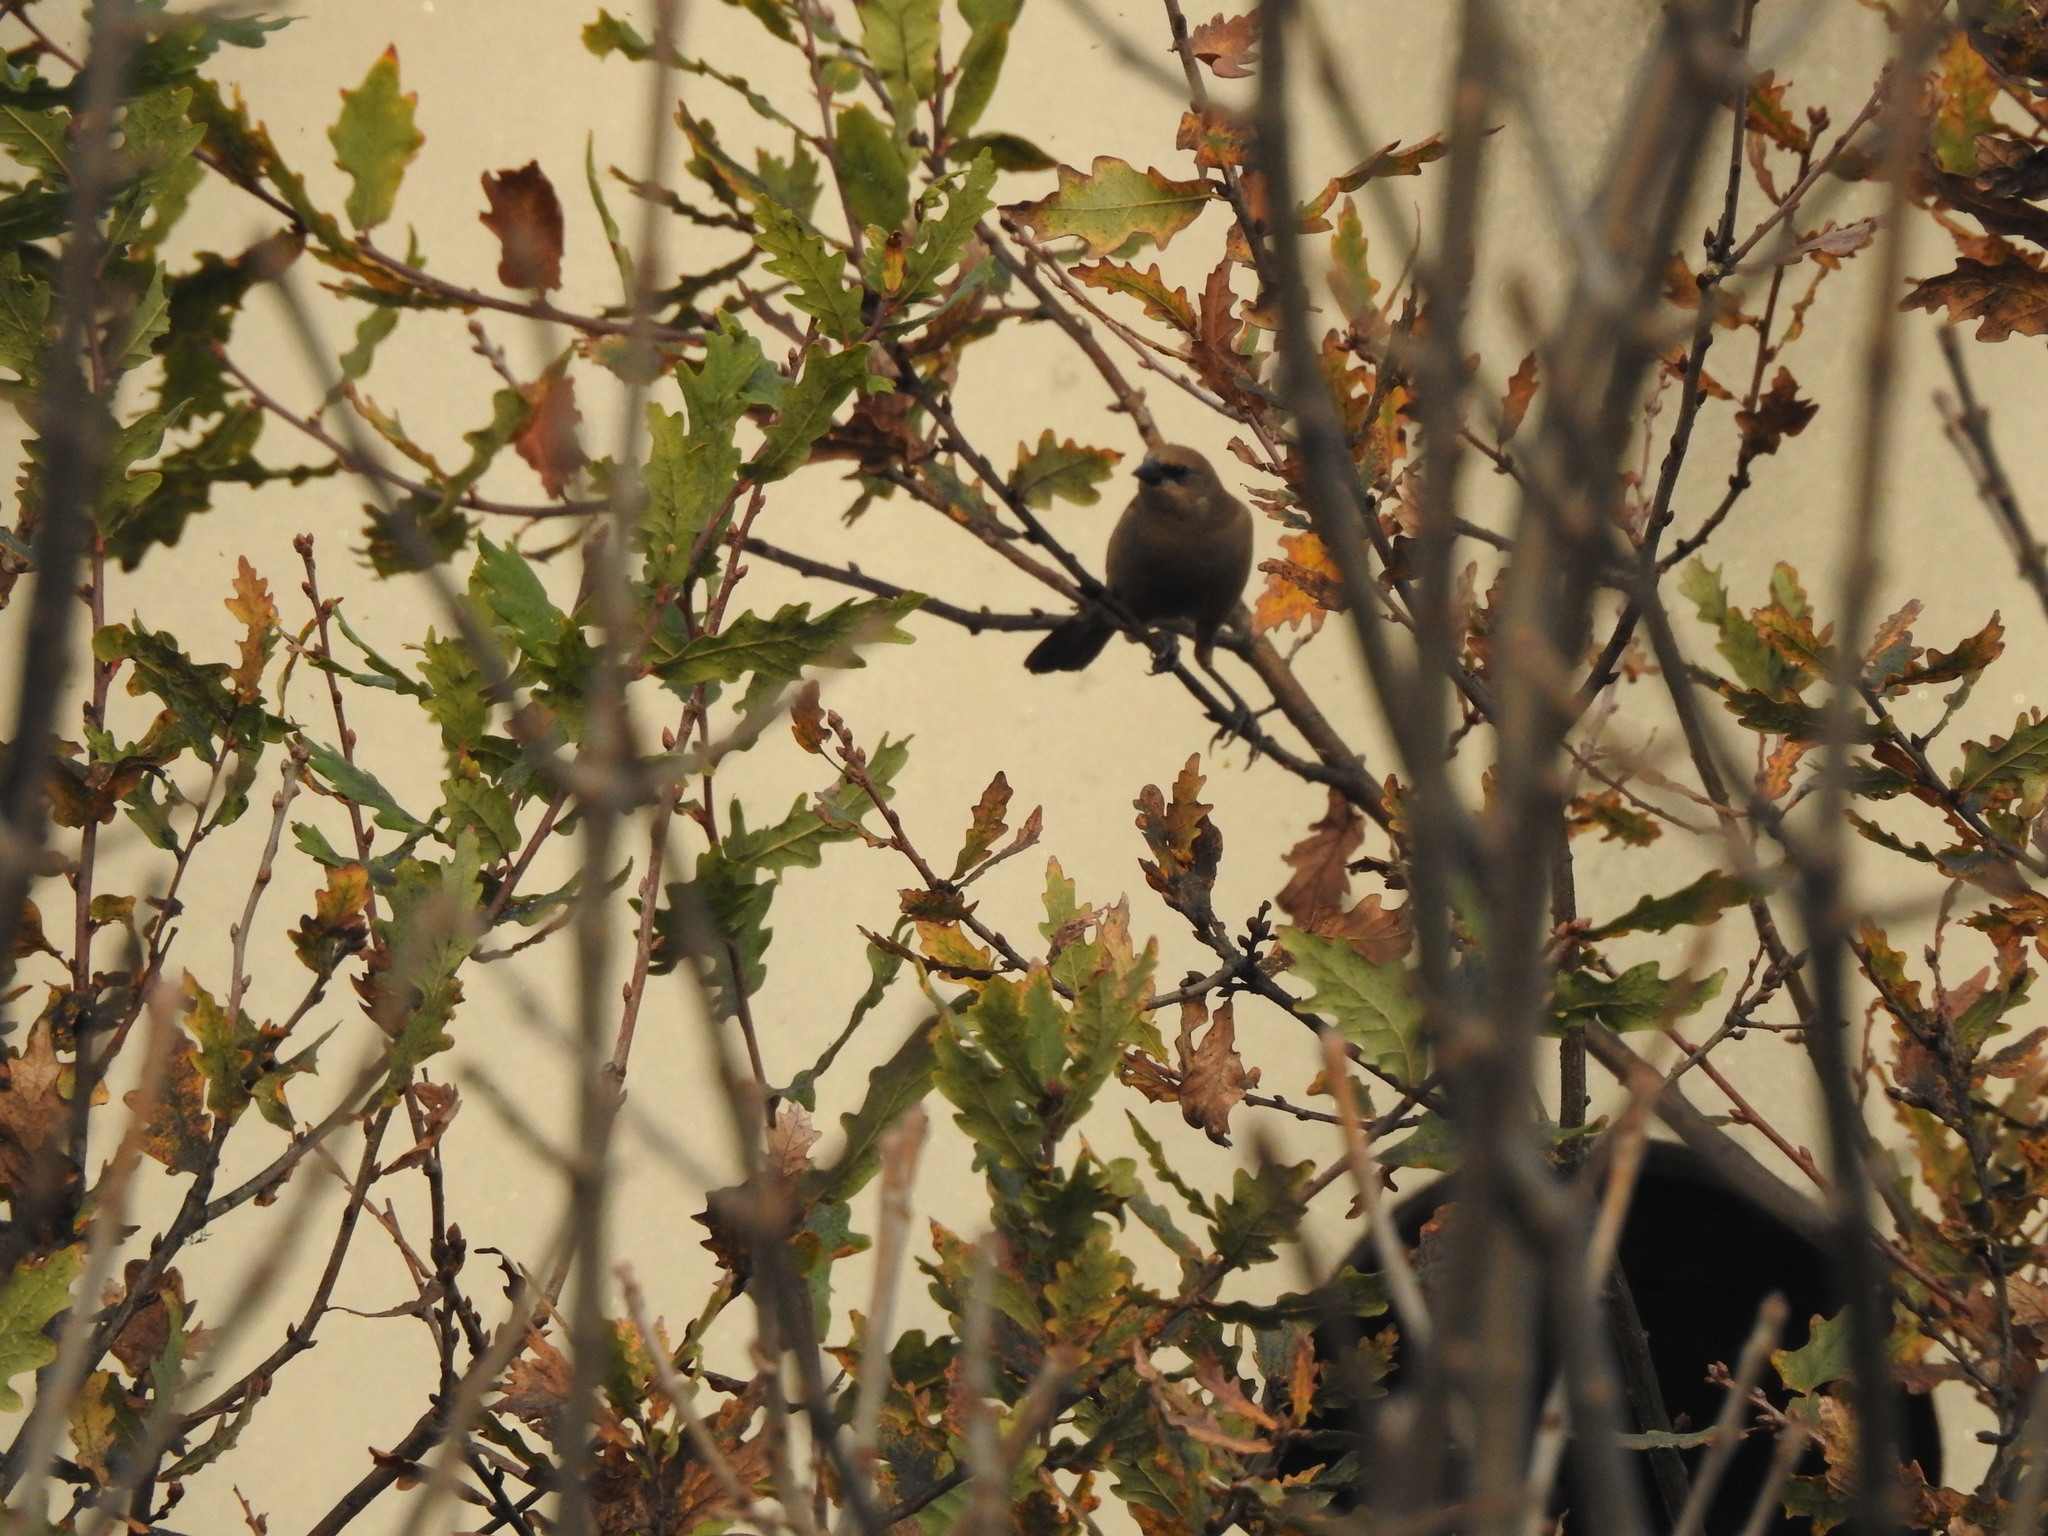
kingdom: Animalia
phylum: Chordata
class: Aves
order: Passeriformes
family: Icteridae
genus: Agelaioides
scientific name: Agelaioides badius
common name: Baywing
